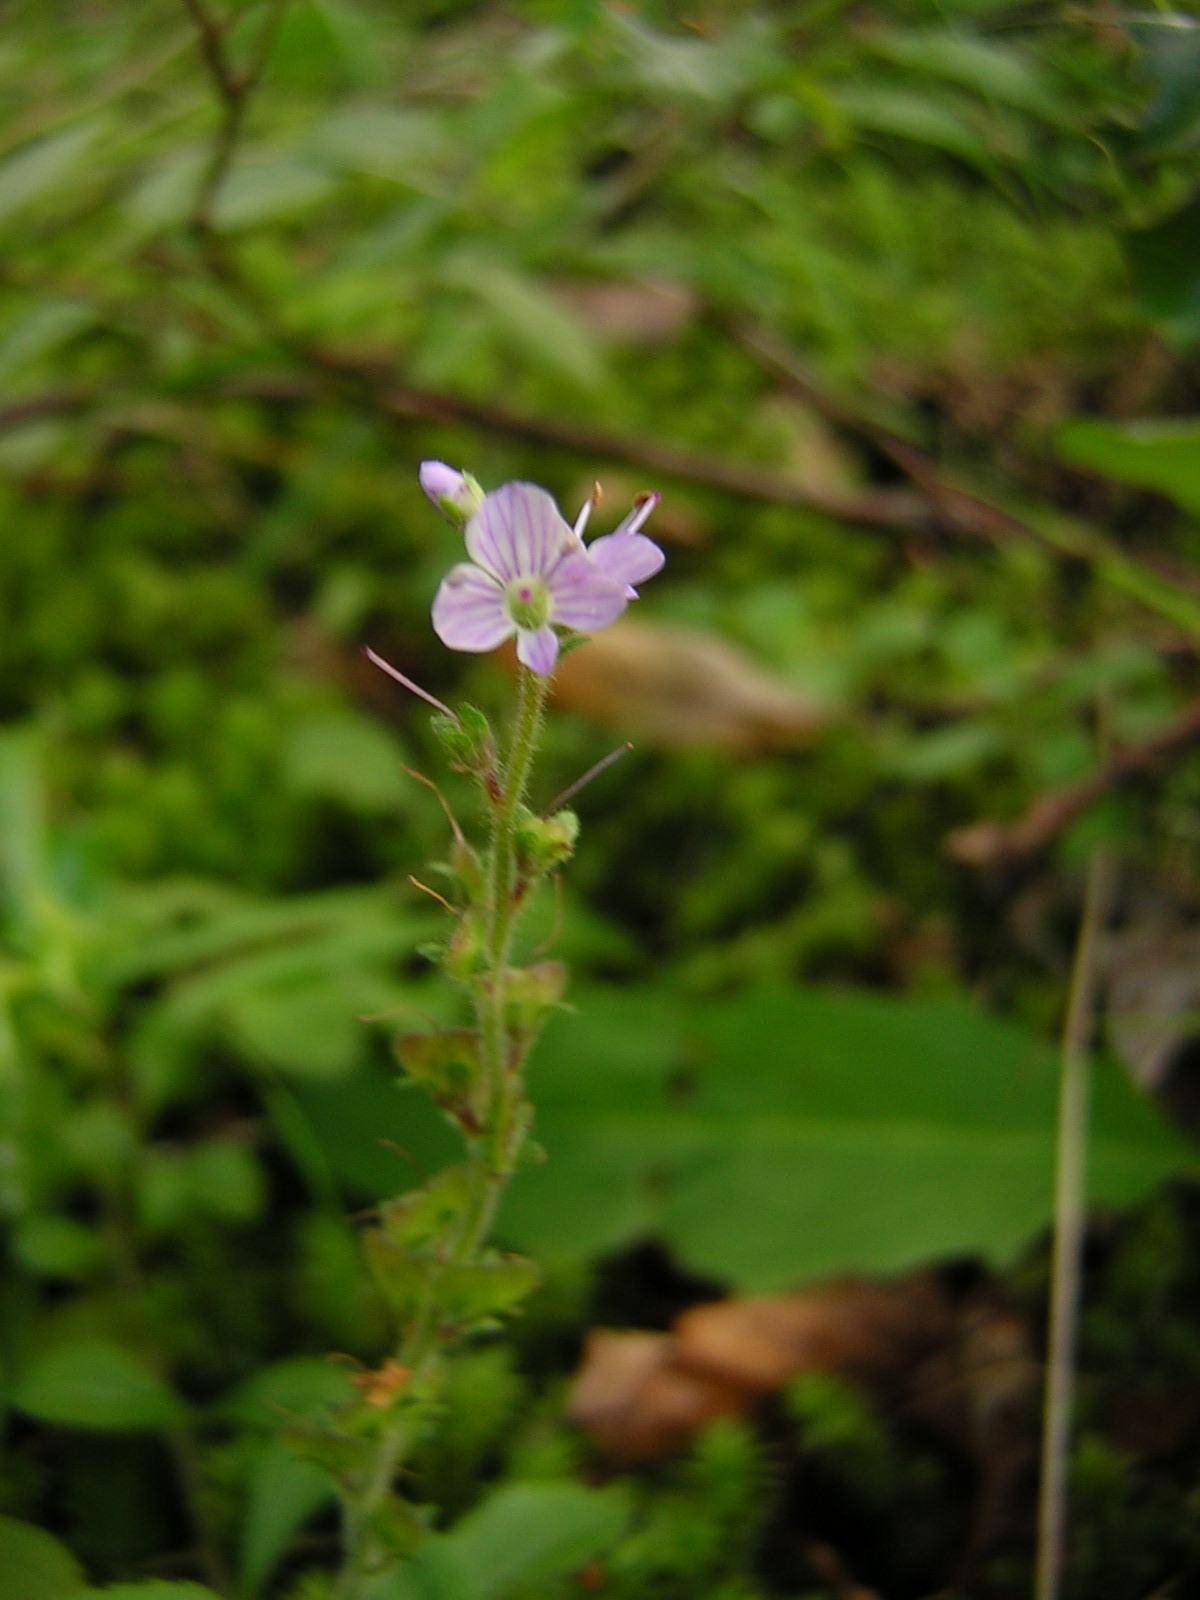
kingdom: Plantae
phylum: Tracheophyta
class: Magnoliopsida
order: Lamiales
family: Plantaginaceae
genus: Veronica
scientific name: Veronica officinalis
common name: Common speedwell
